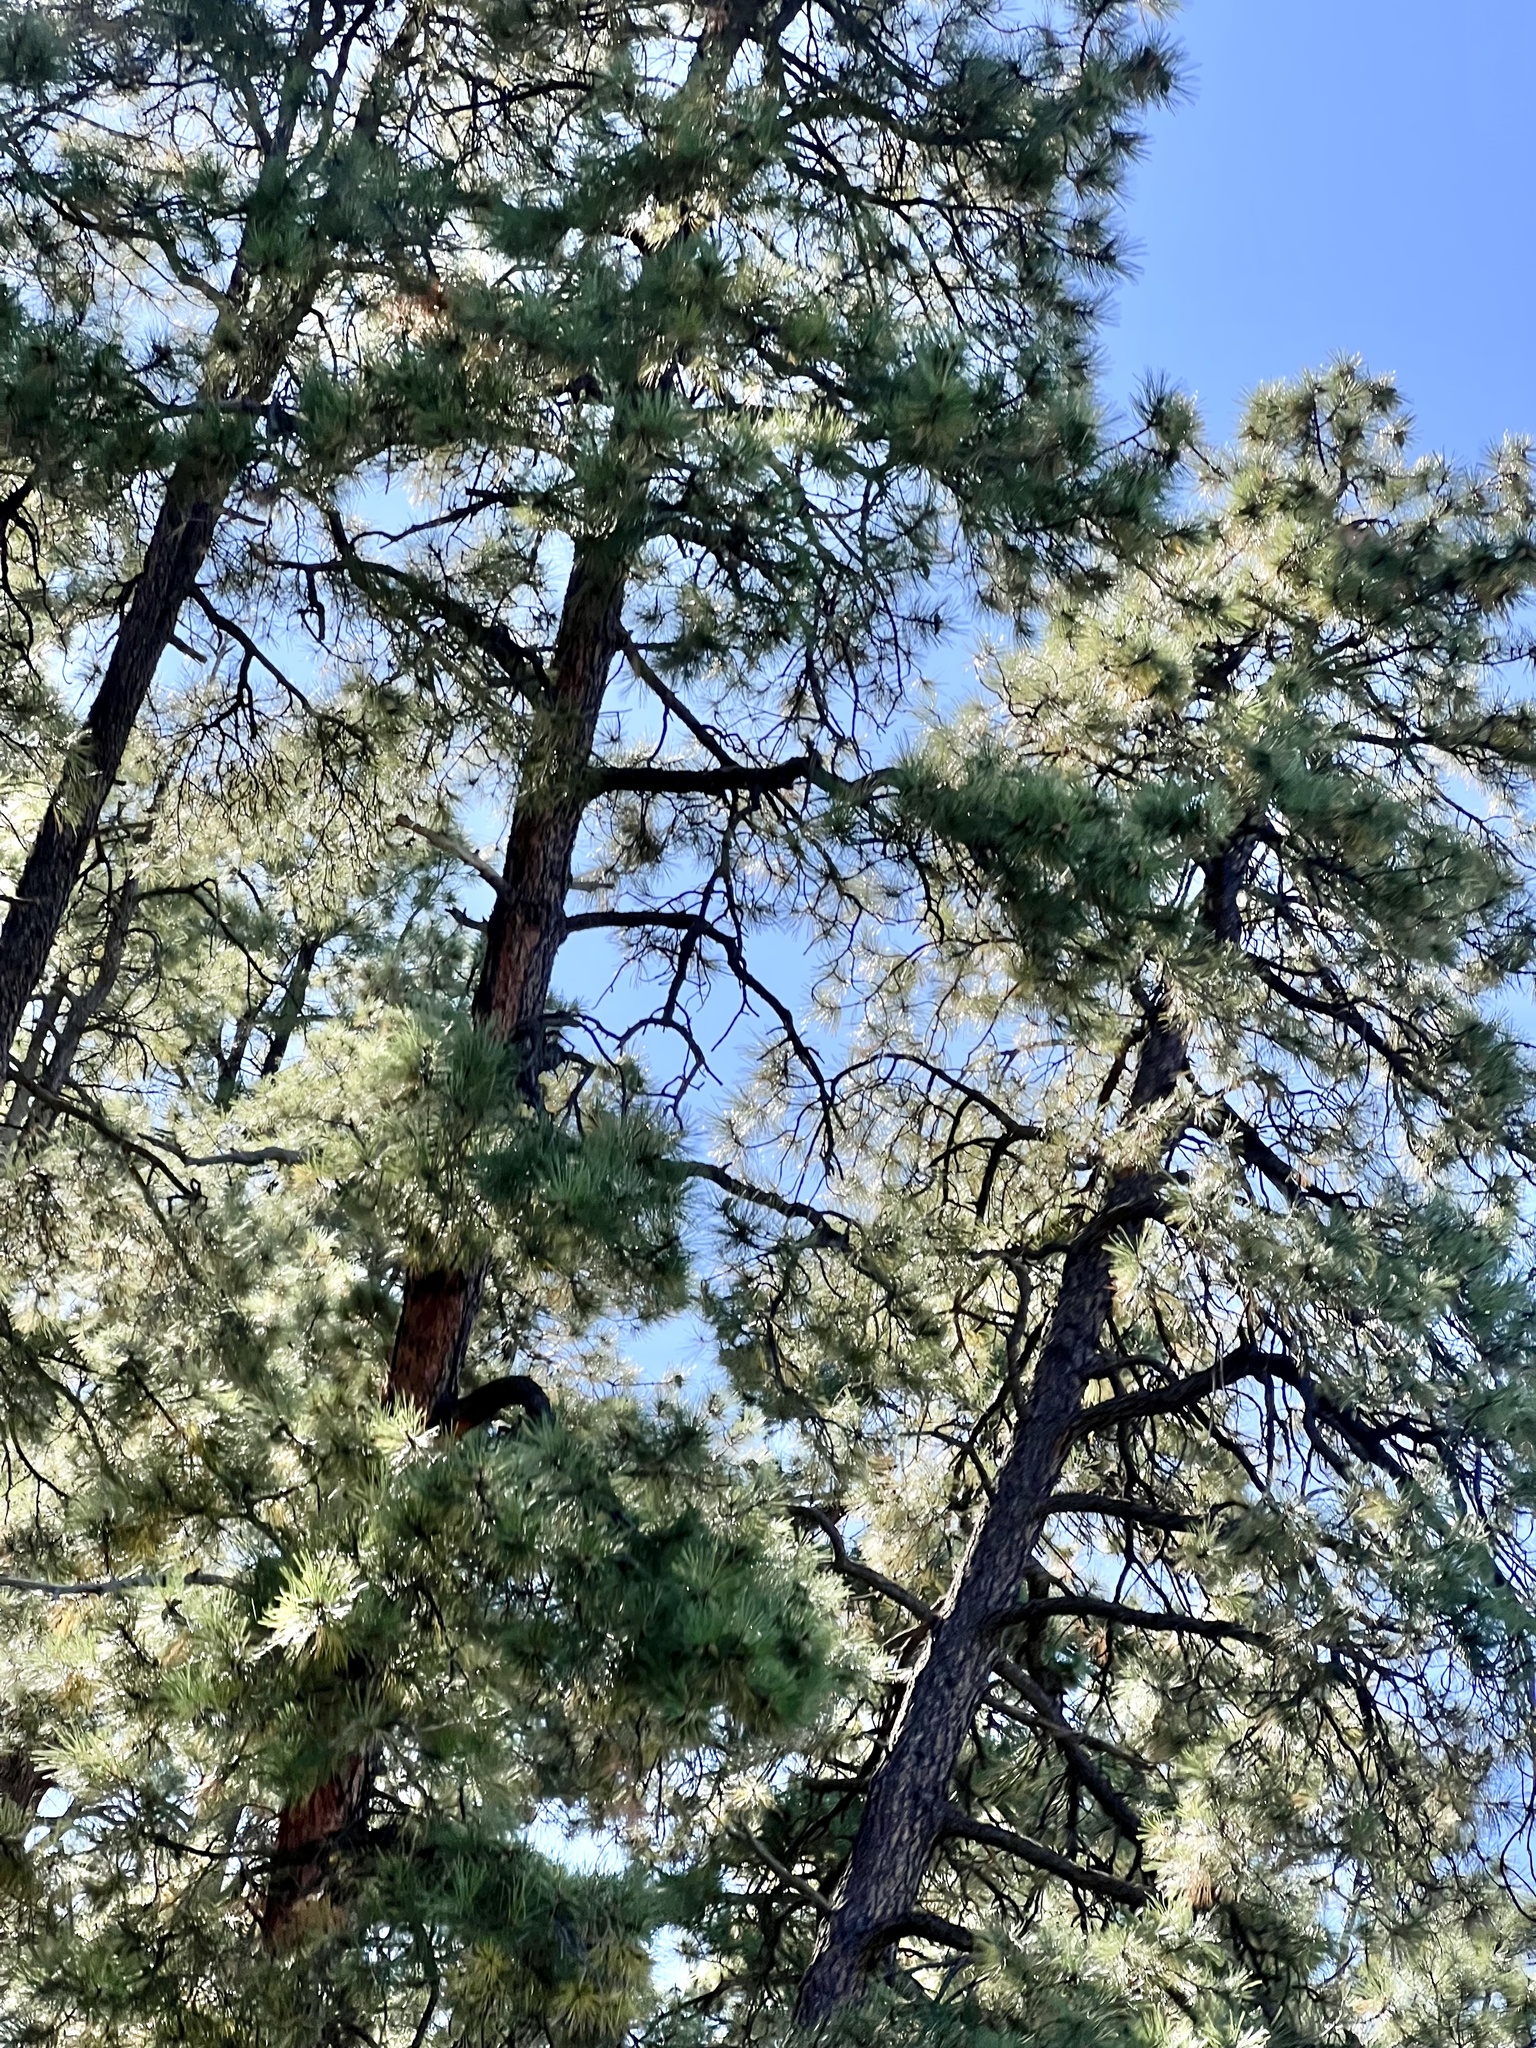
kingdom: Plantae
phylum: Tracheophyta
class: Pinopsida
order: Pinales
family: Pinaceae
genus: Pinus
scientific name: Pinus ponderosa
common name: Western yellow-pine
